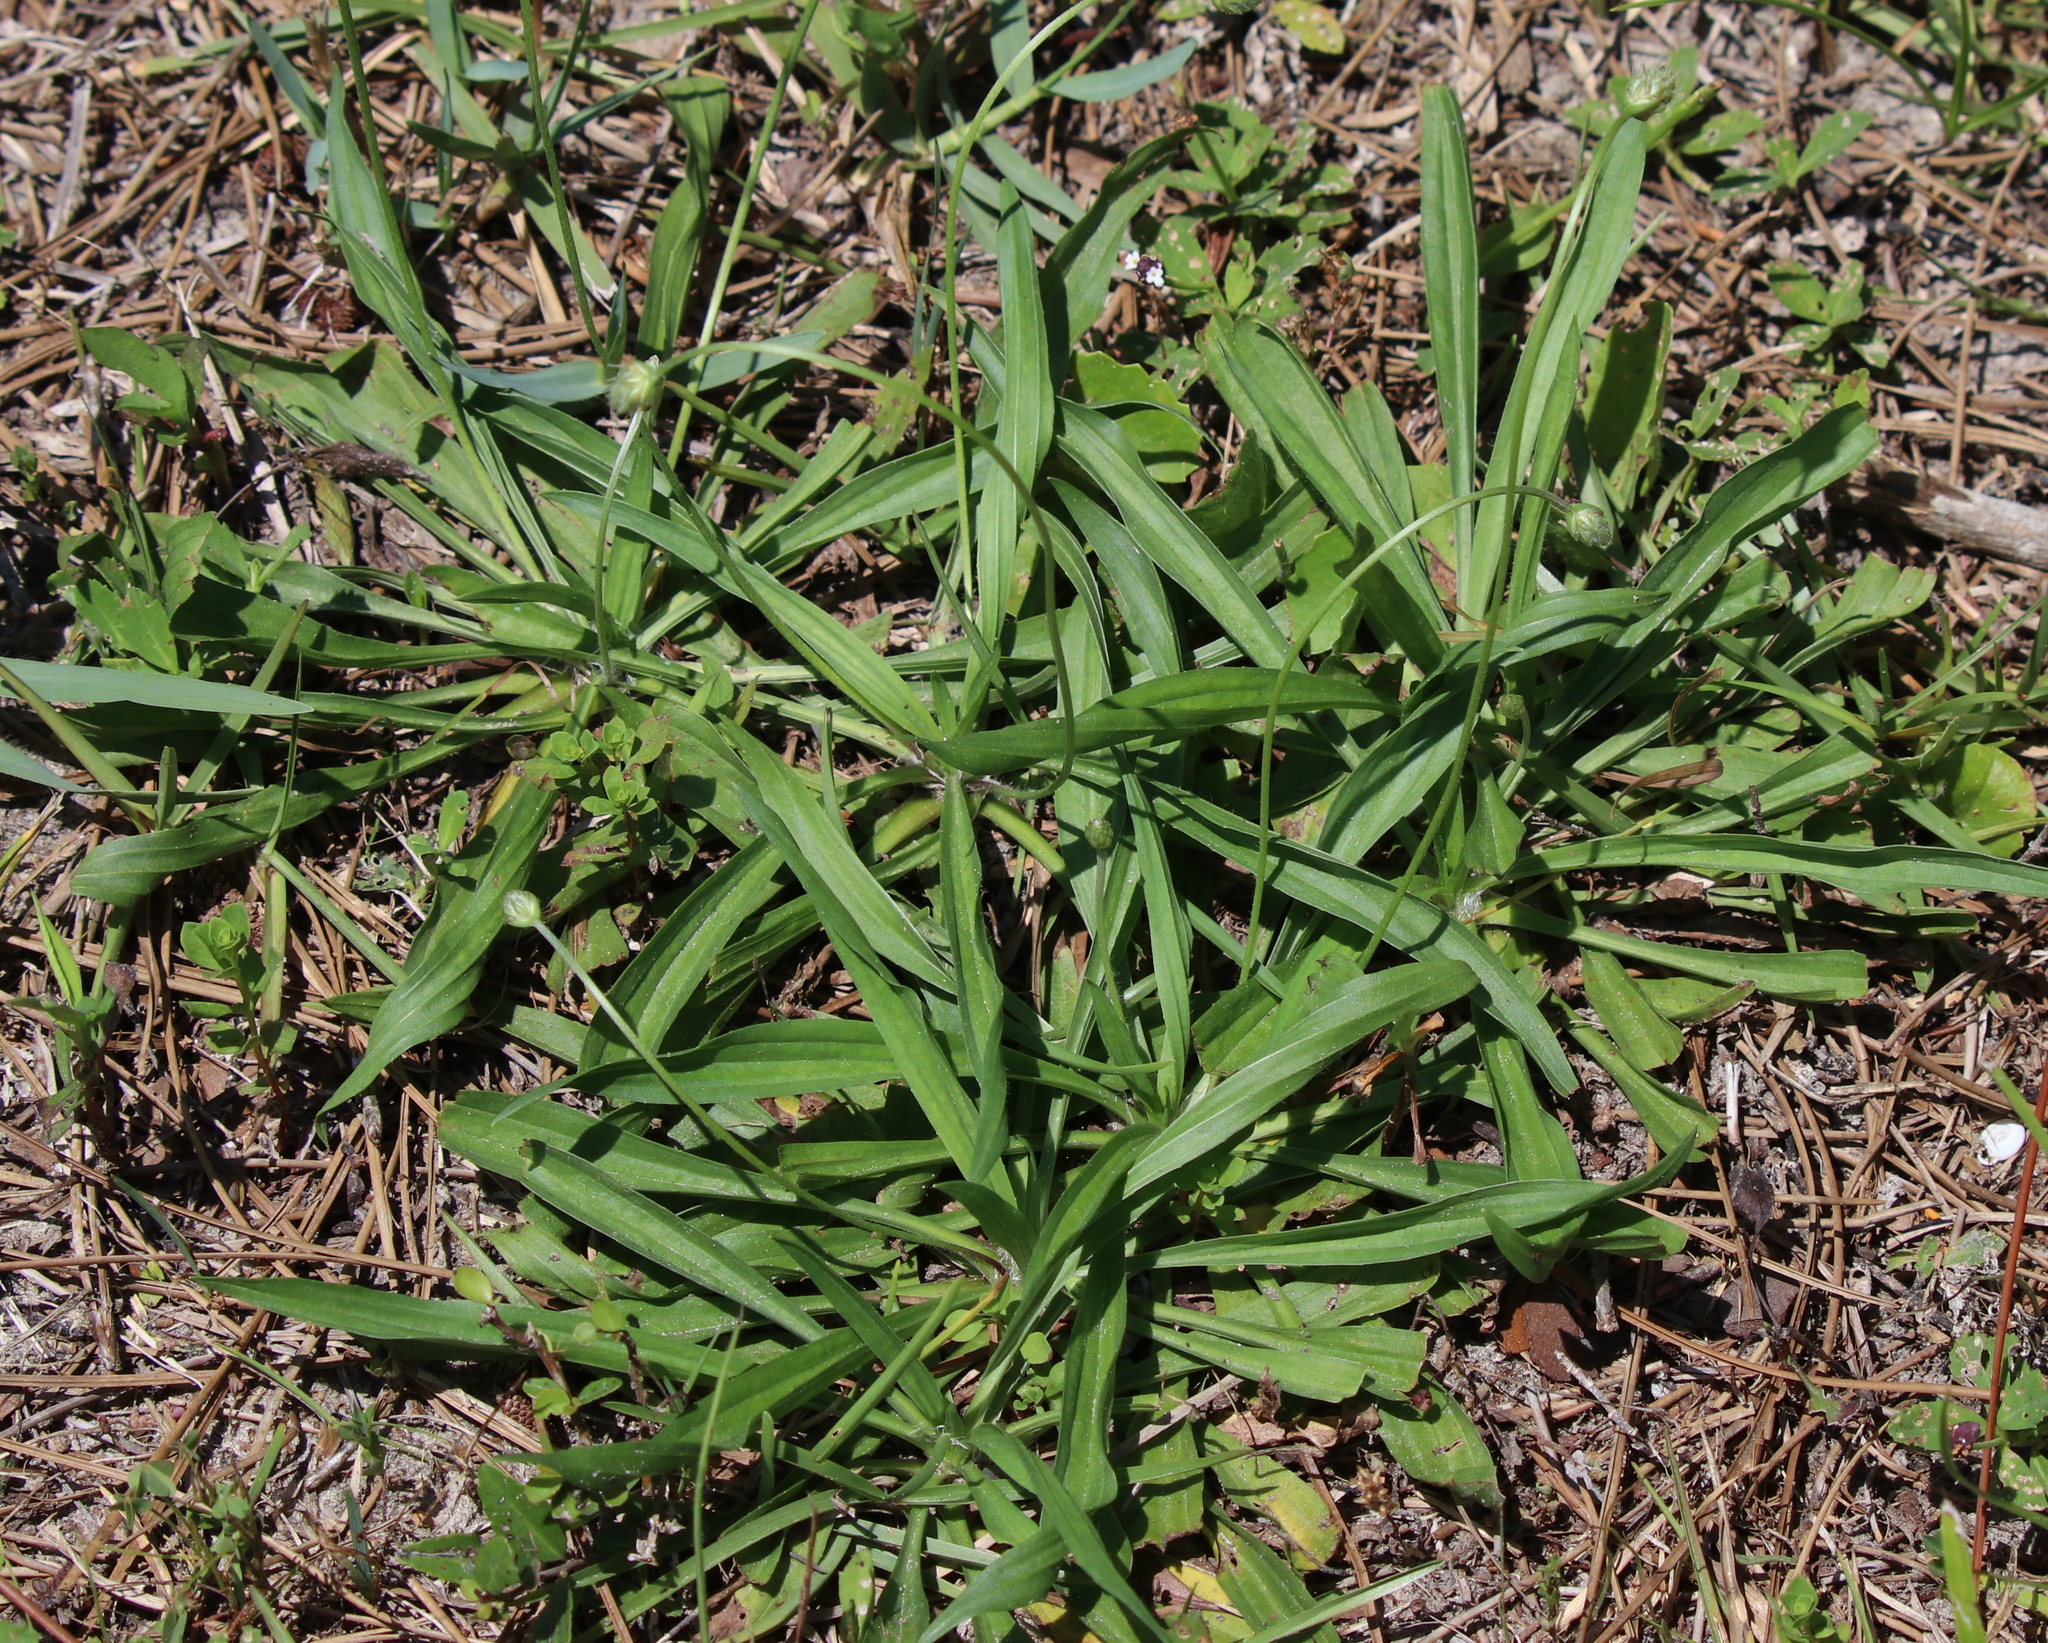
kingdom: Plantae
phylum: Tracheophyta
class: Magnoliopsida
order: Lamiales
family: Plantaginaceae
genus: Plantago
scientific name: Plantago lanceolata
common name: Ribwort plantain
